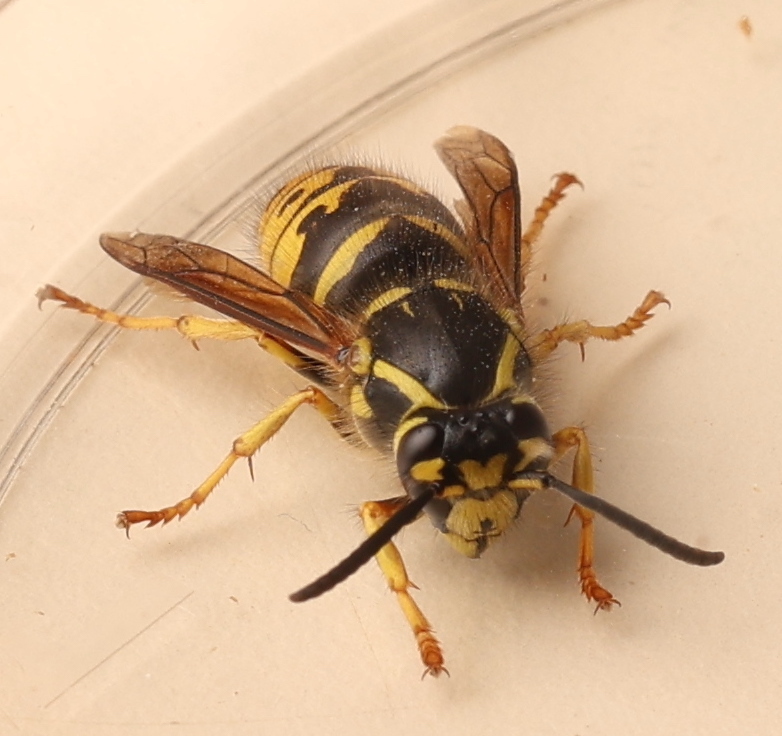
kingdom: Animalia
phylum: Arthropoda
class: Insecta
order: Hymenoptera
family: Vespidae
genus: Dolichovespula
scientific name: Dolichovespula arenaria
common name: Aerial yellowjacket
